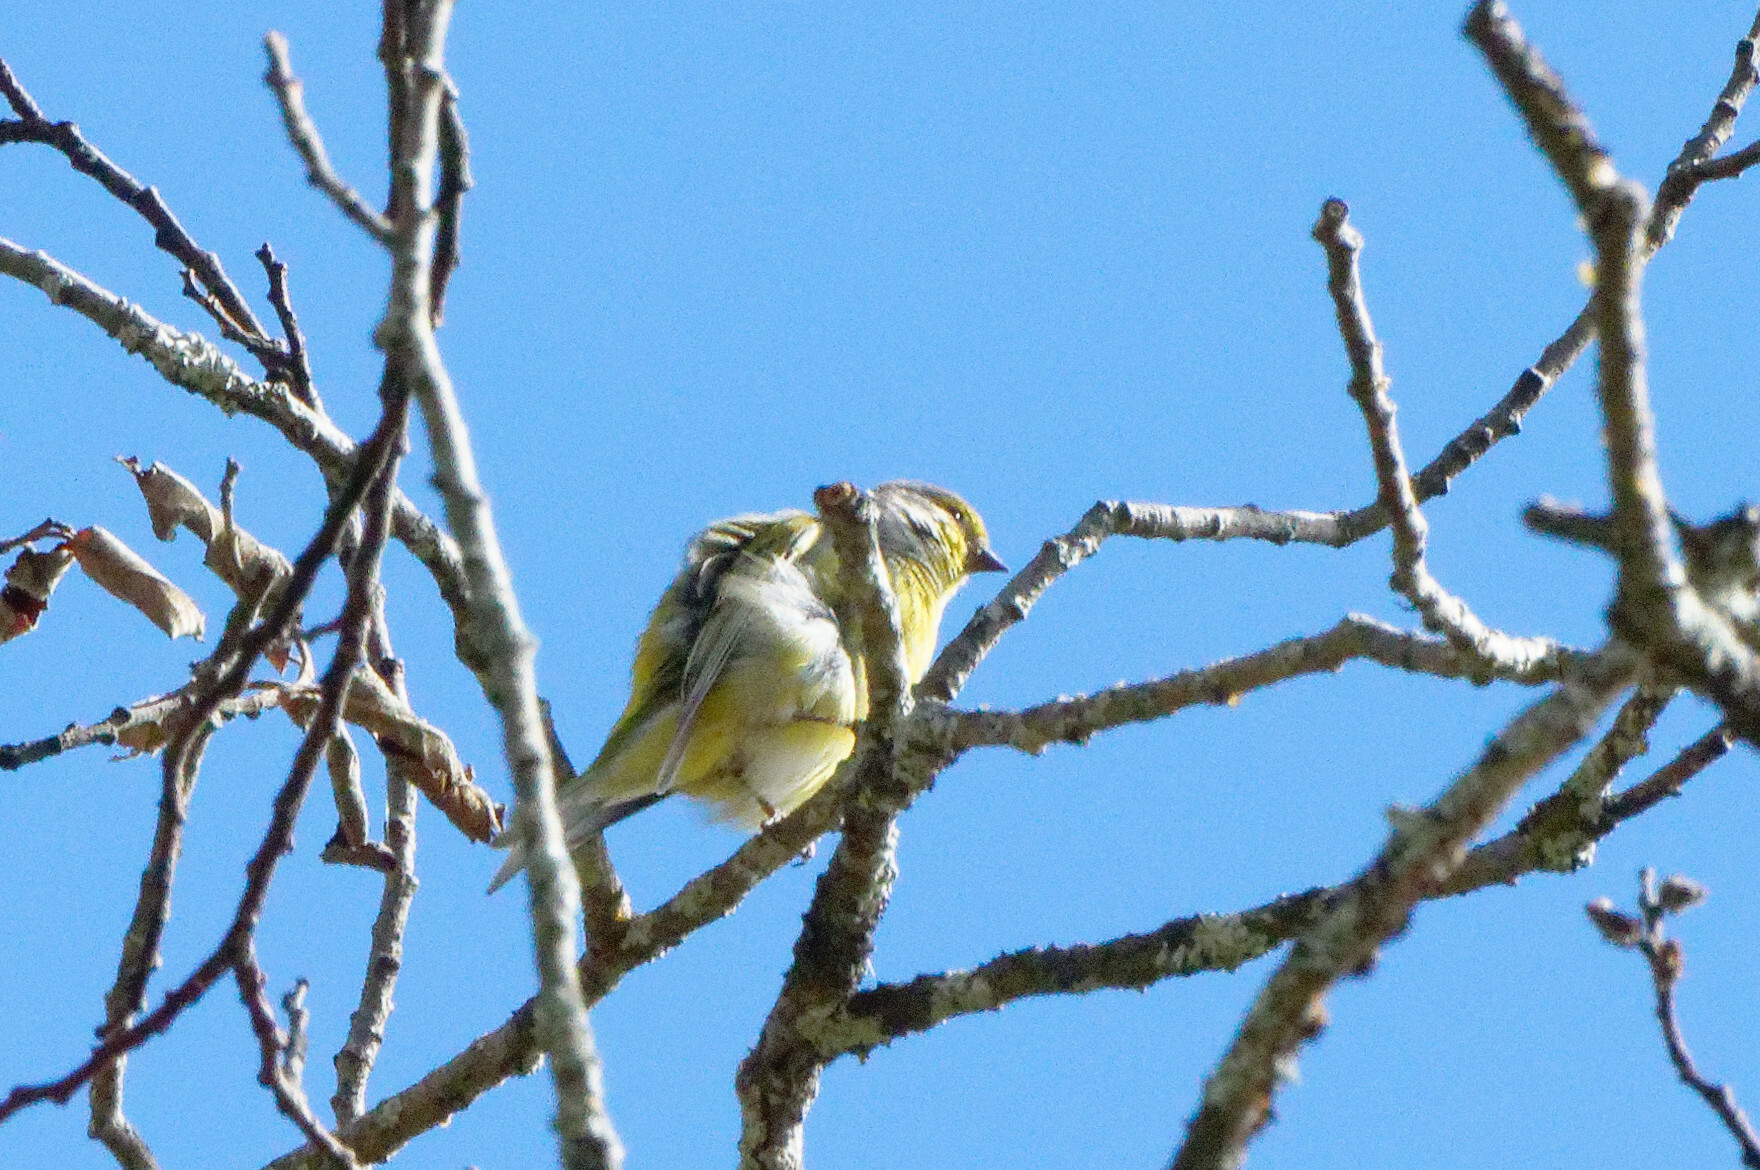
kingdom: Animalia
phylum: Chordata
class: Aves
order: Passeriformes
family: Fringillidae
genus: Carduelis
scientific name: Carduelis citrinella
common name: Citril finch
